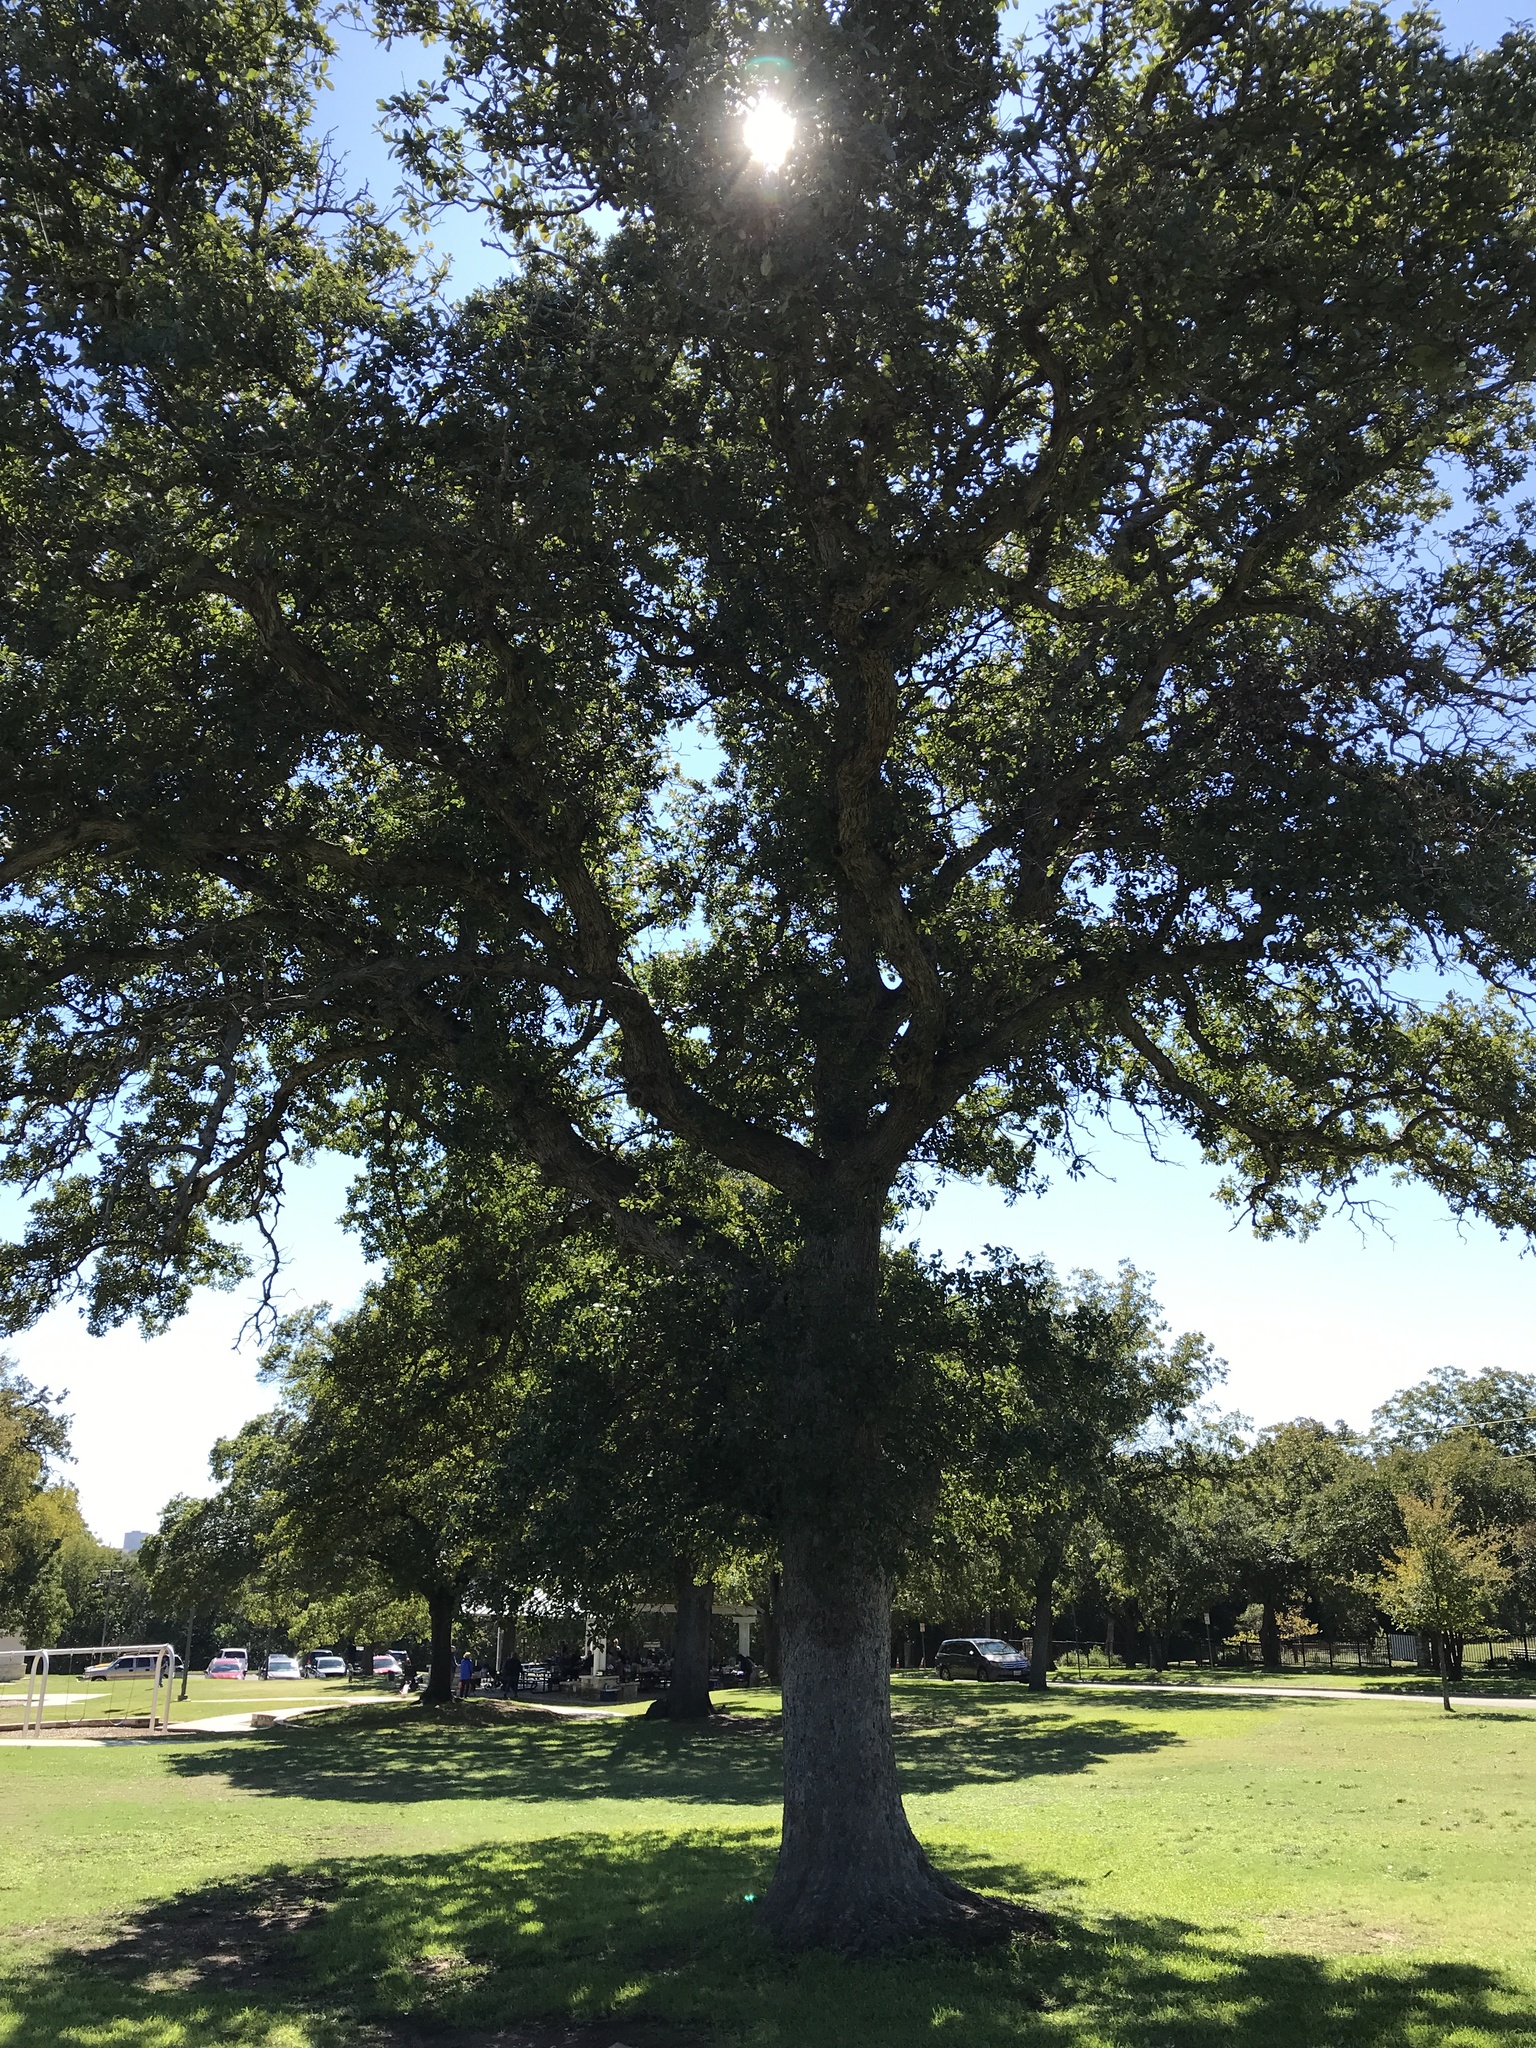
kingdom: Plantae
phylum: Tracheophyta
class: Magnoliopsida
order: Fagales
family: Fagaceae
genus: Quercus
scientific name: Quercus sinuata
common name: Durand oak
